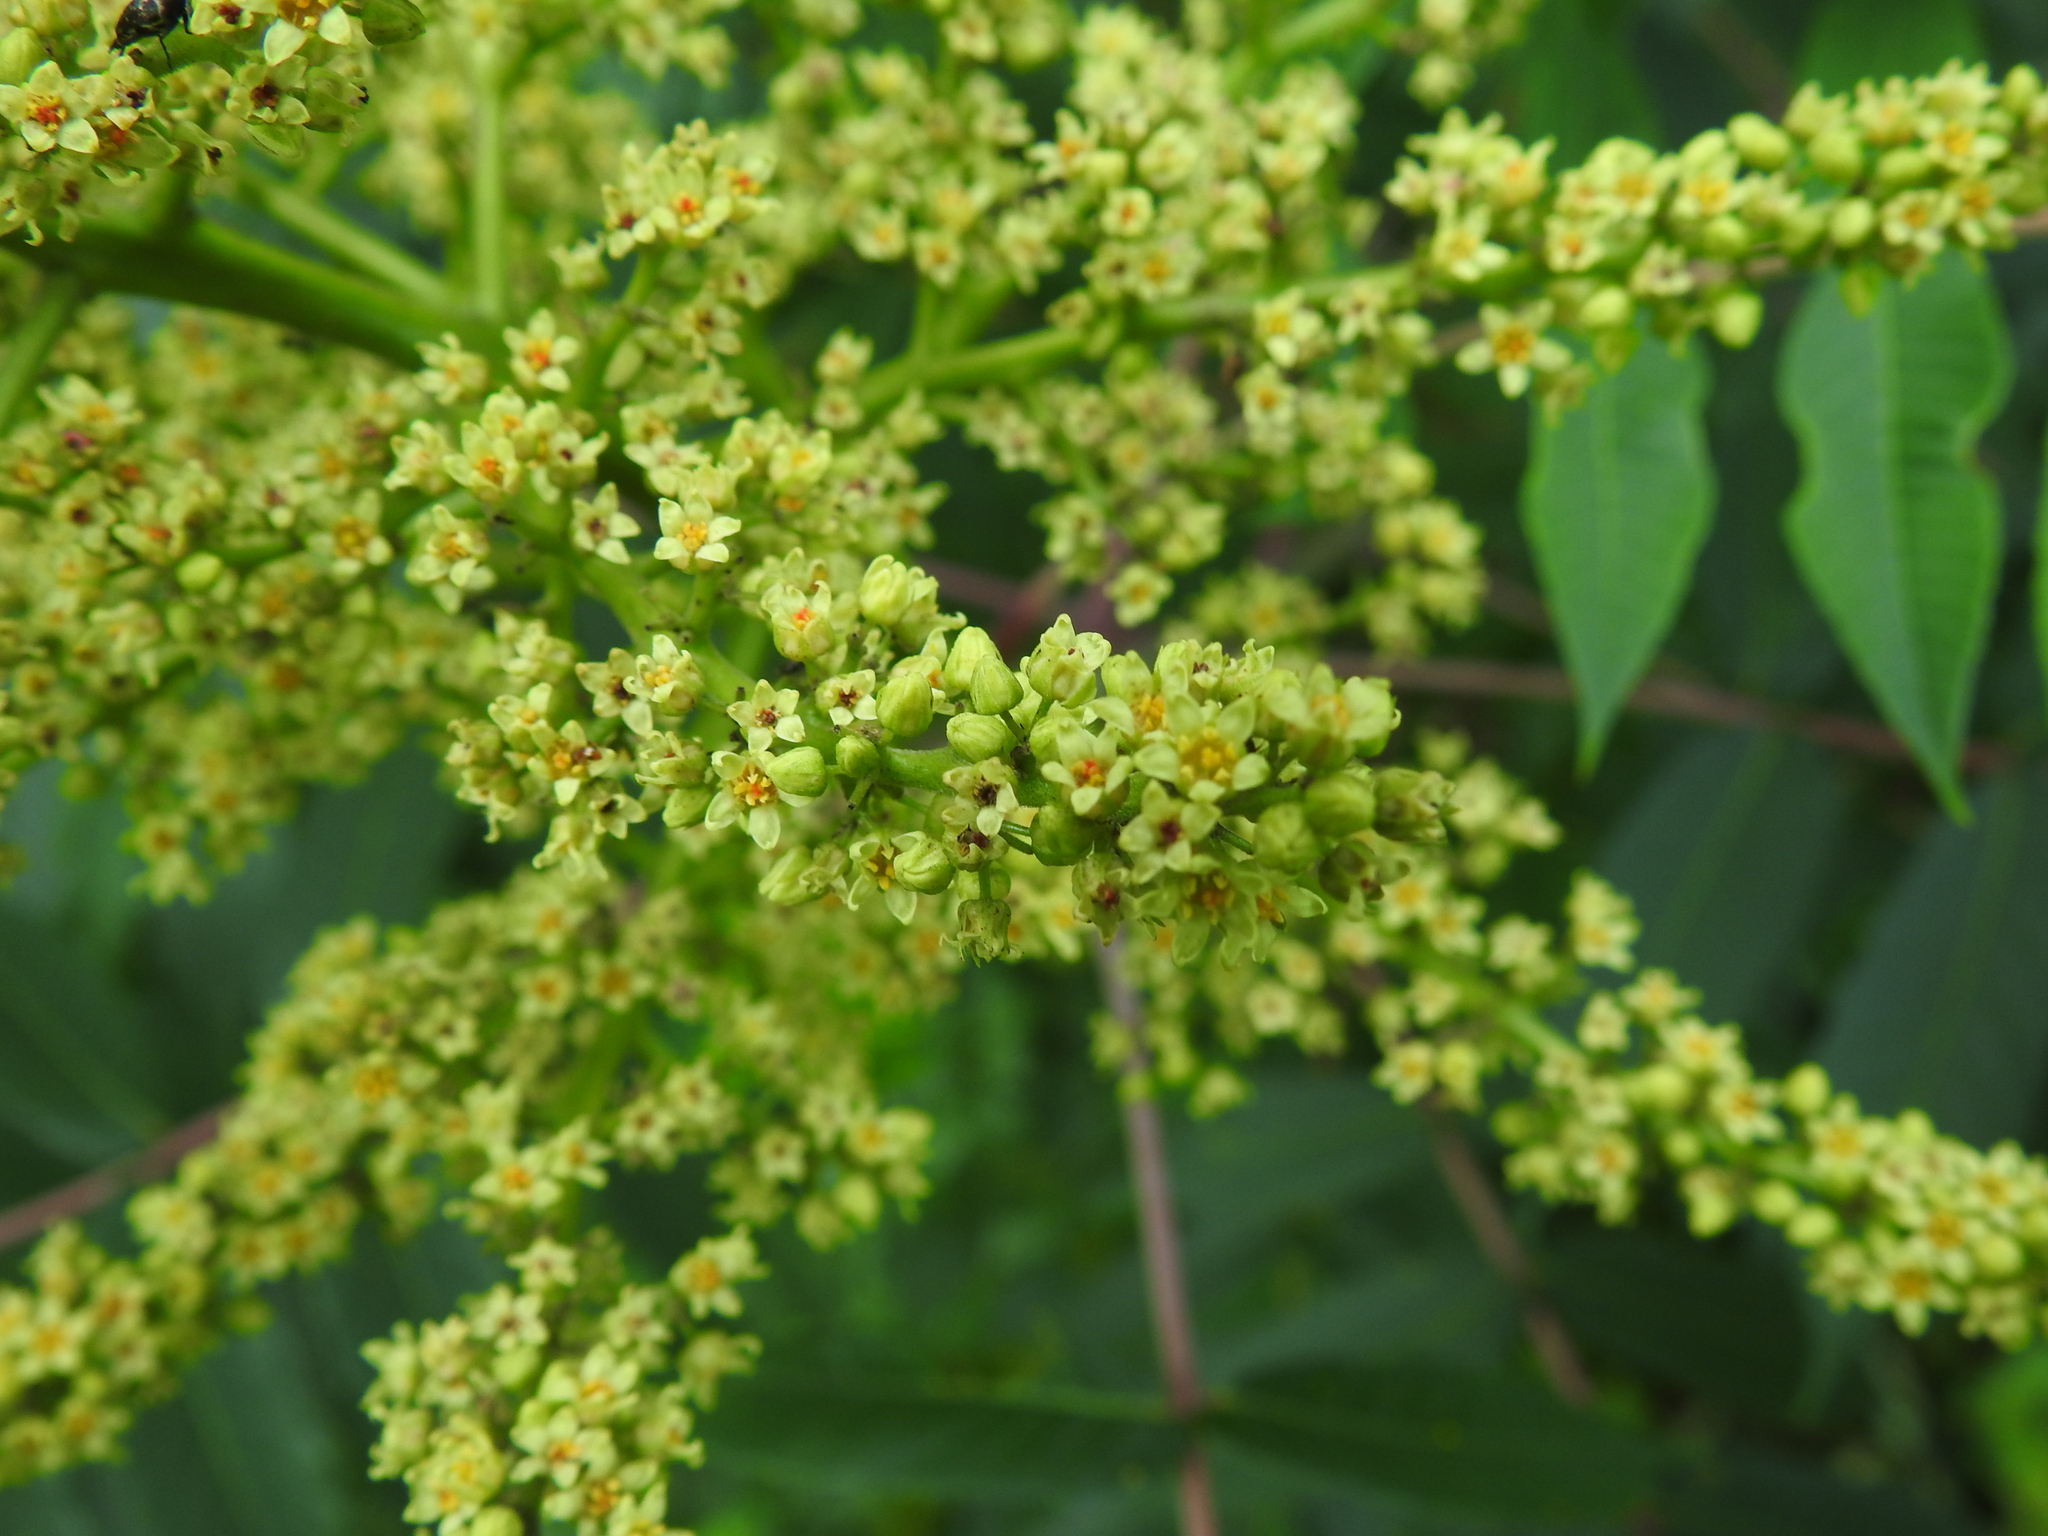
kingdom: Plantae
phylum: Tracheophyta
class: Magnoliopsida
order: Sapindales
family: Anacardiaceae
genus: Rhus
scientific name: Rhus glabra
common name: Scarlet sumac
